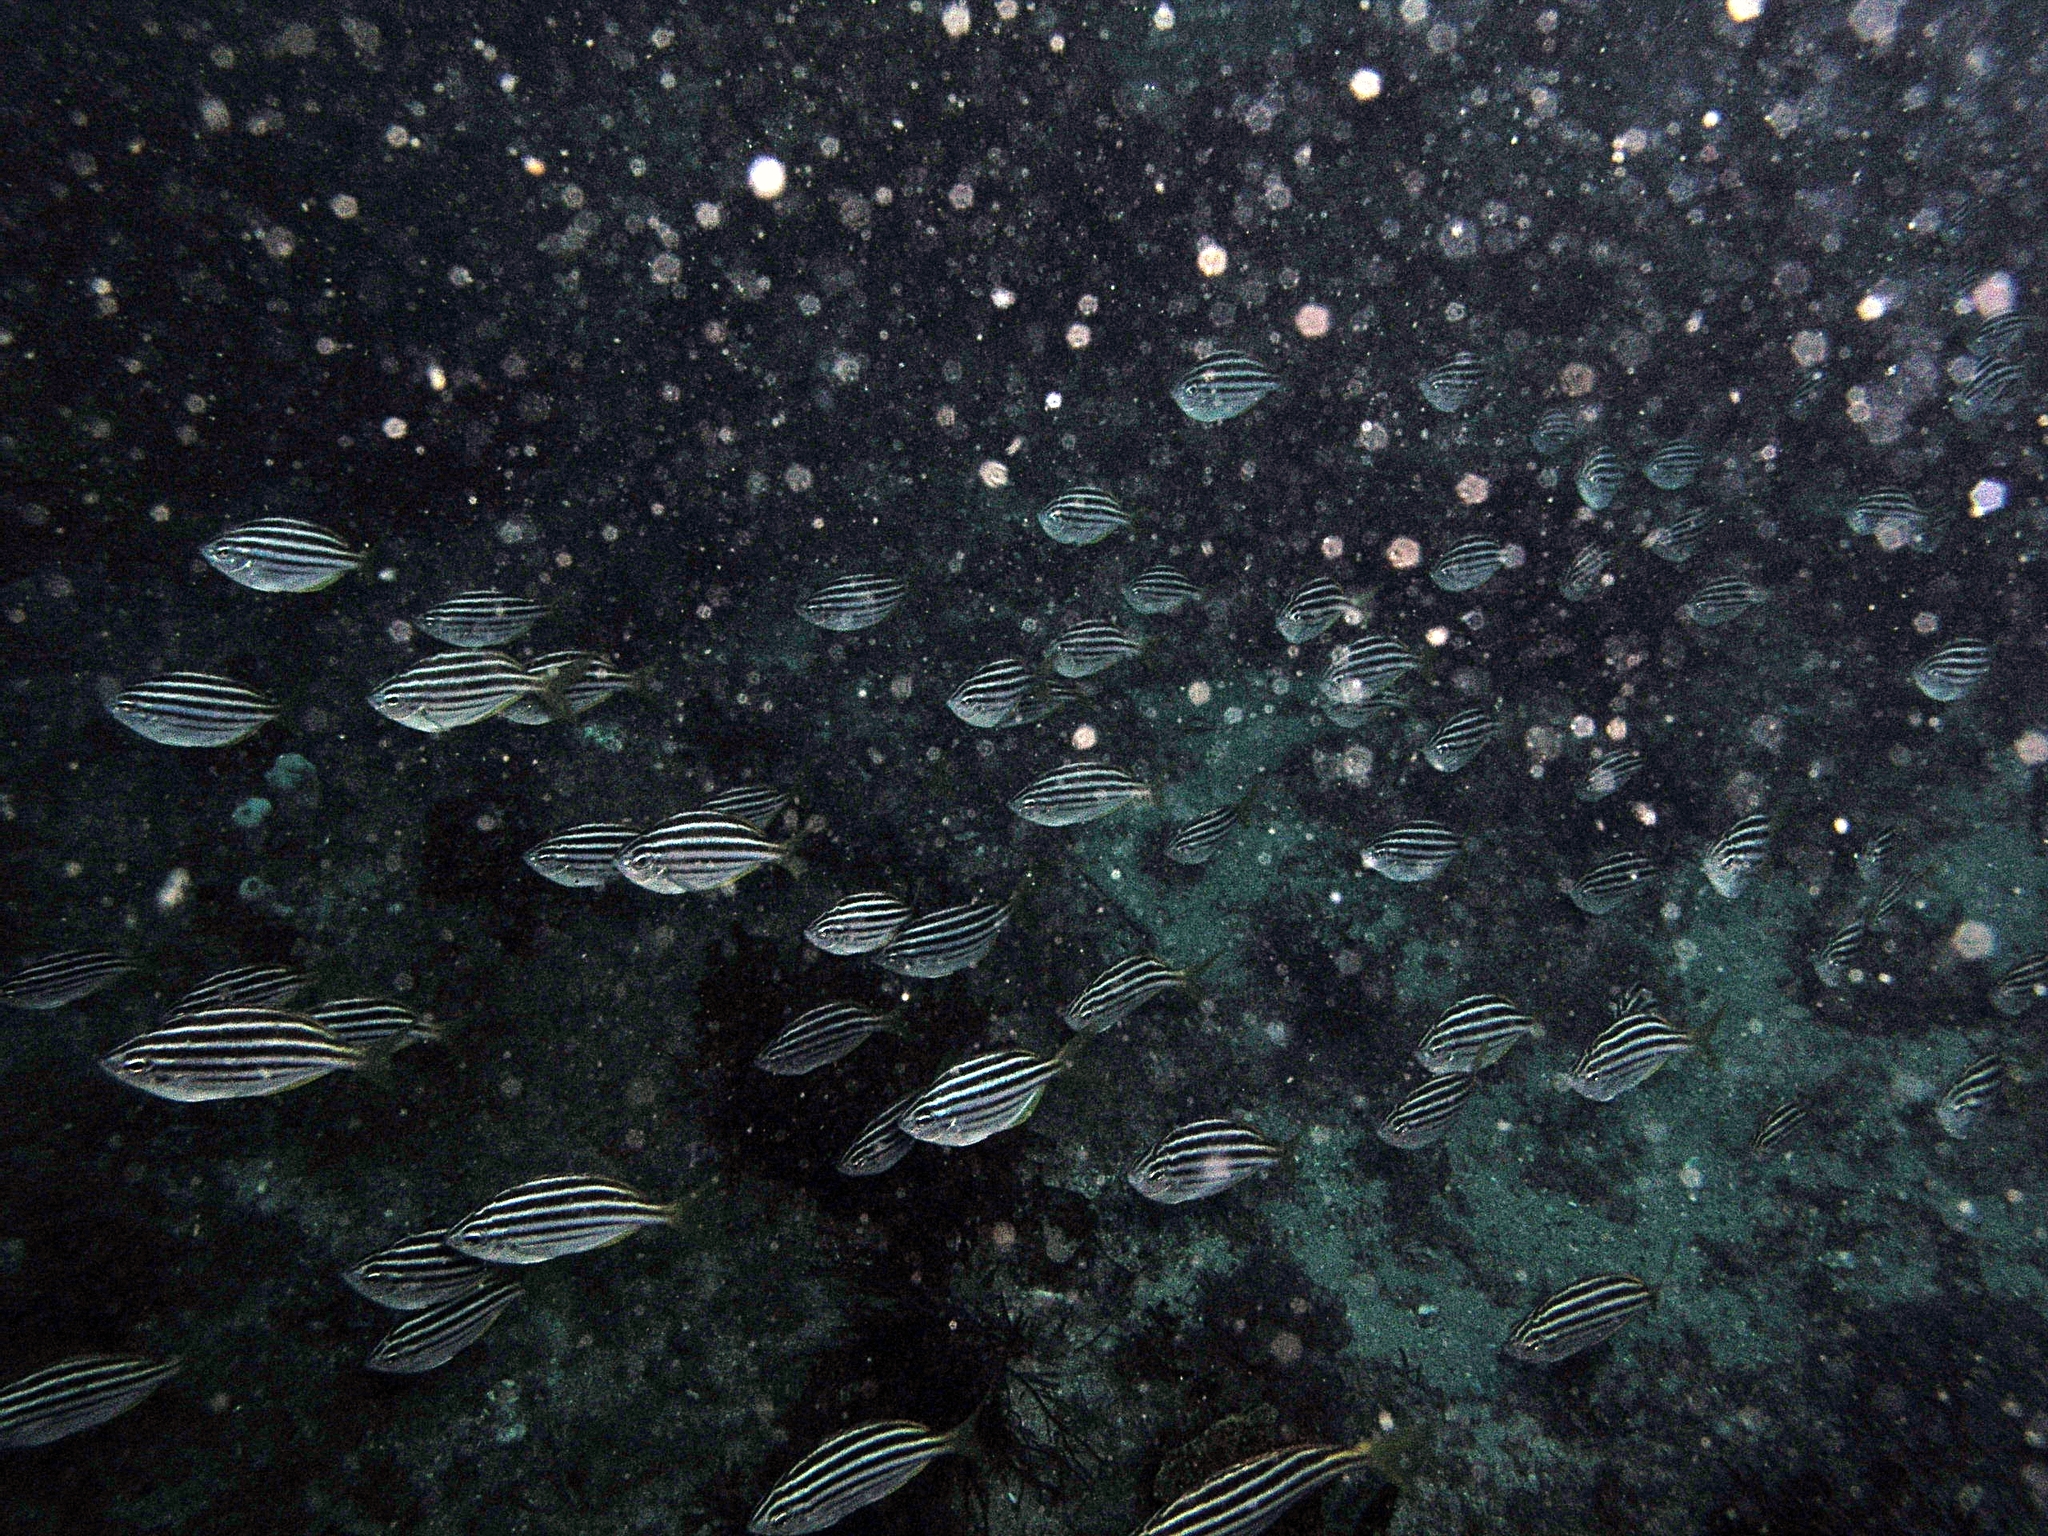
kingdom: Animalia
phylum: Chordata
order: Perciformes
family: Kyphosidae
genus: Atypichthys
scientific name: Atypichthys strigatus
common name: Australian mado
